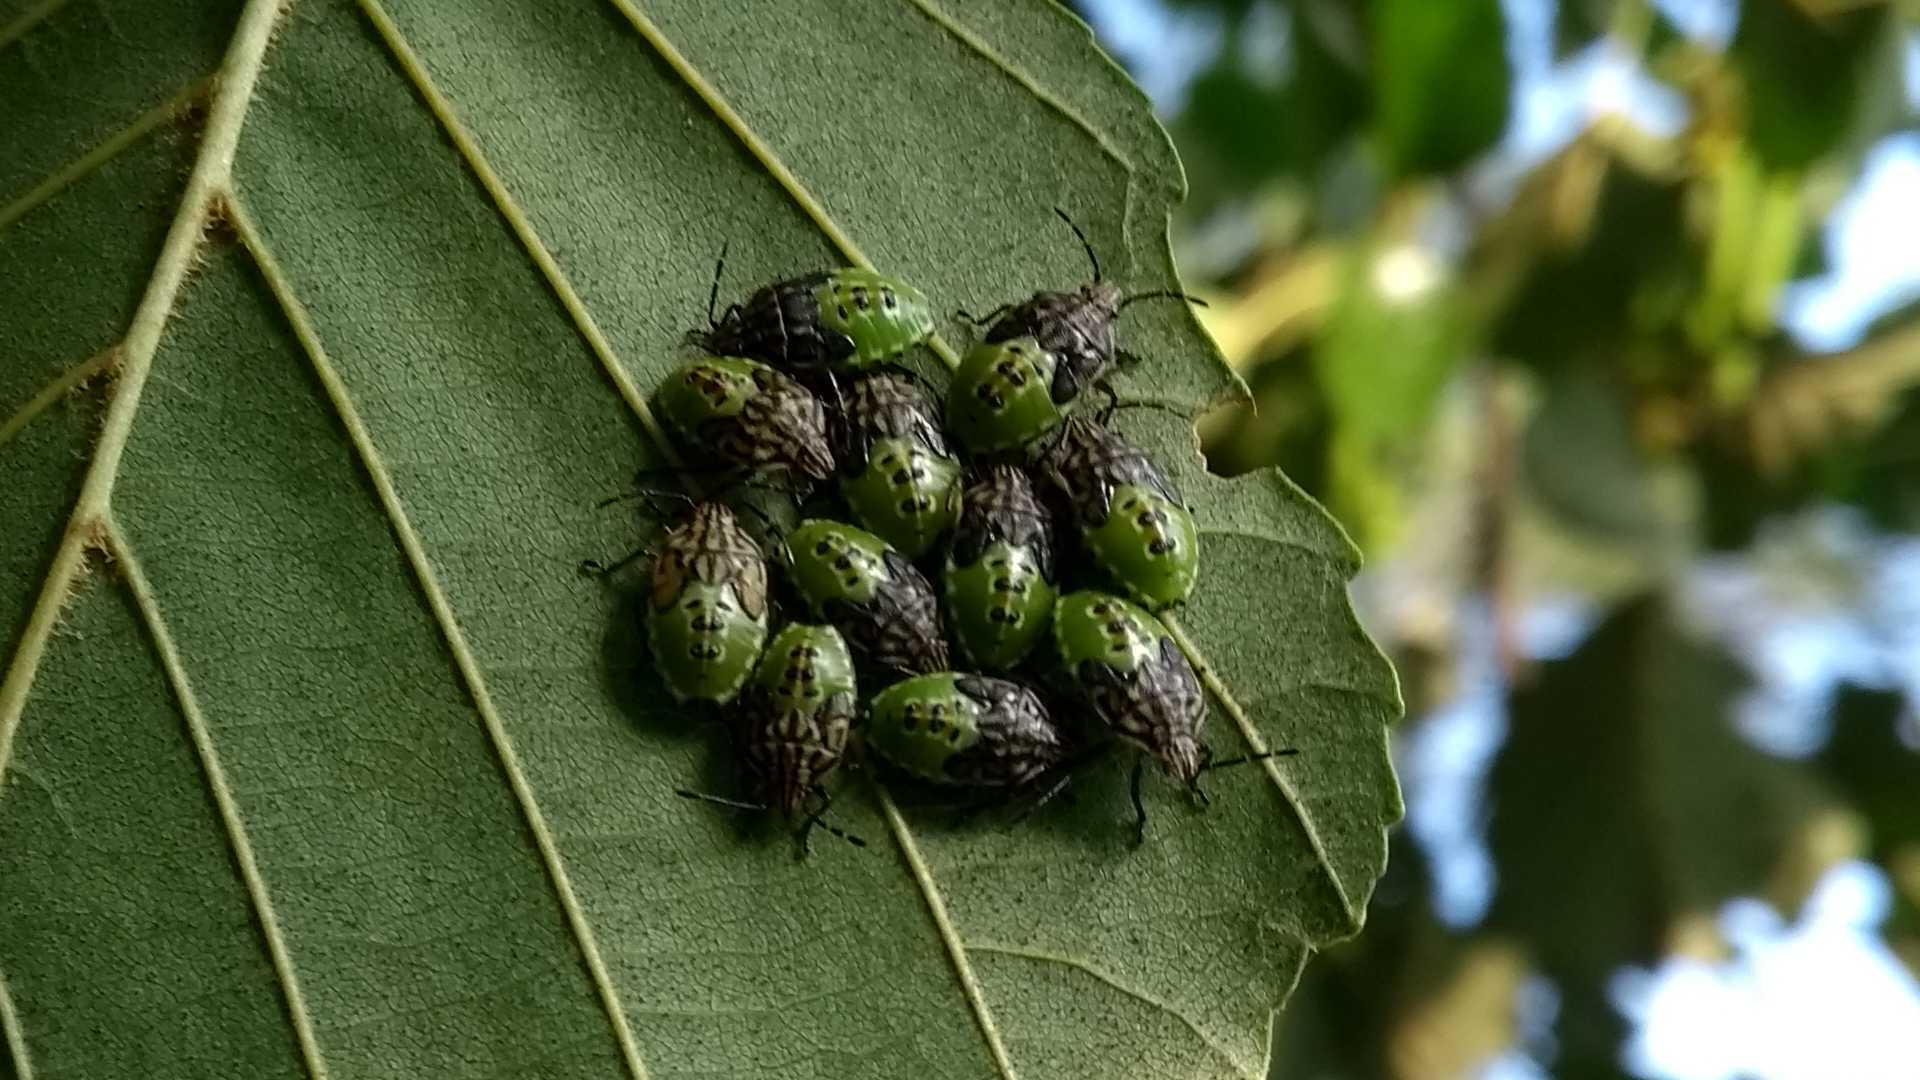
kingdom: Animalia
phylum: Arthropoda
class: Insecta
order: Hemiptera
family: Acanthosomatidae
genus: Elasmucha
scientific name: Elasmucha grisea
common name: Parent bug
